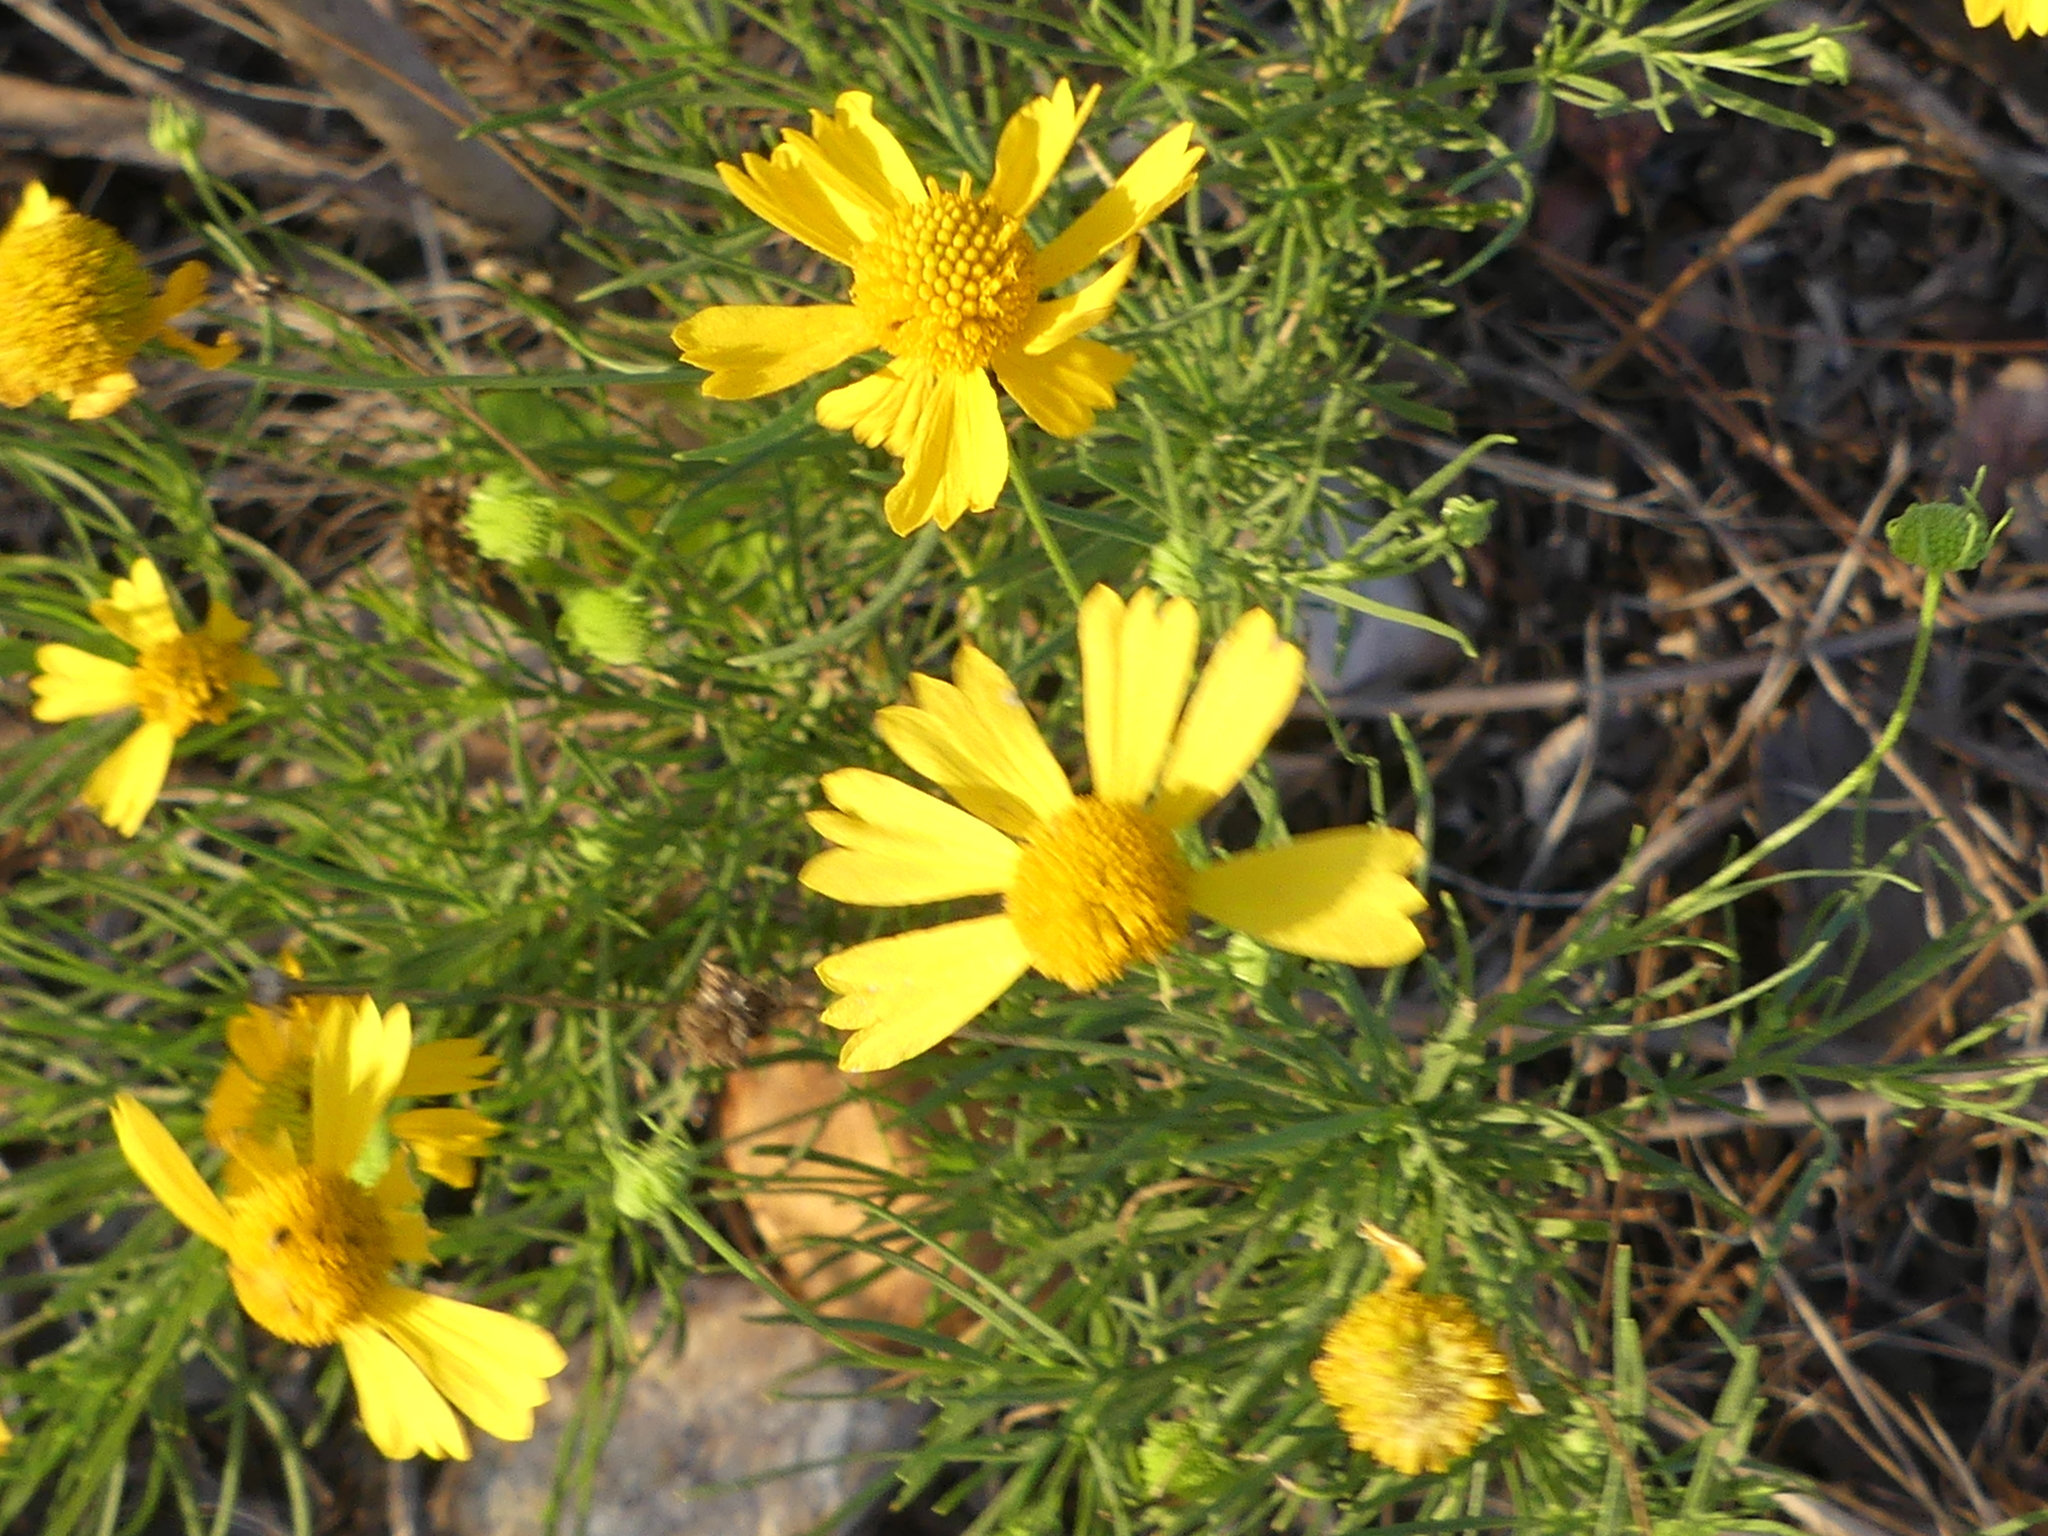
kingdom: Plantae
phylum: Tracheophyta
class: Magnoliopsida
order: Asterales
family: Asteraceae
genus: Helenium
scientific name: Helenium amarum
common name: Bitter sneezeweed
